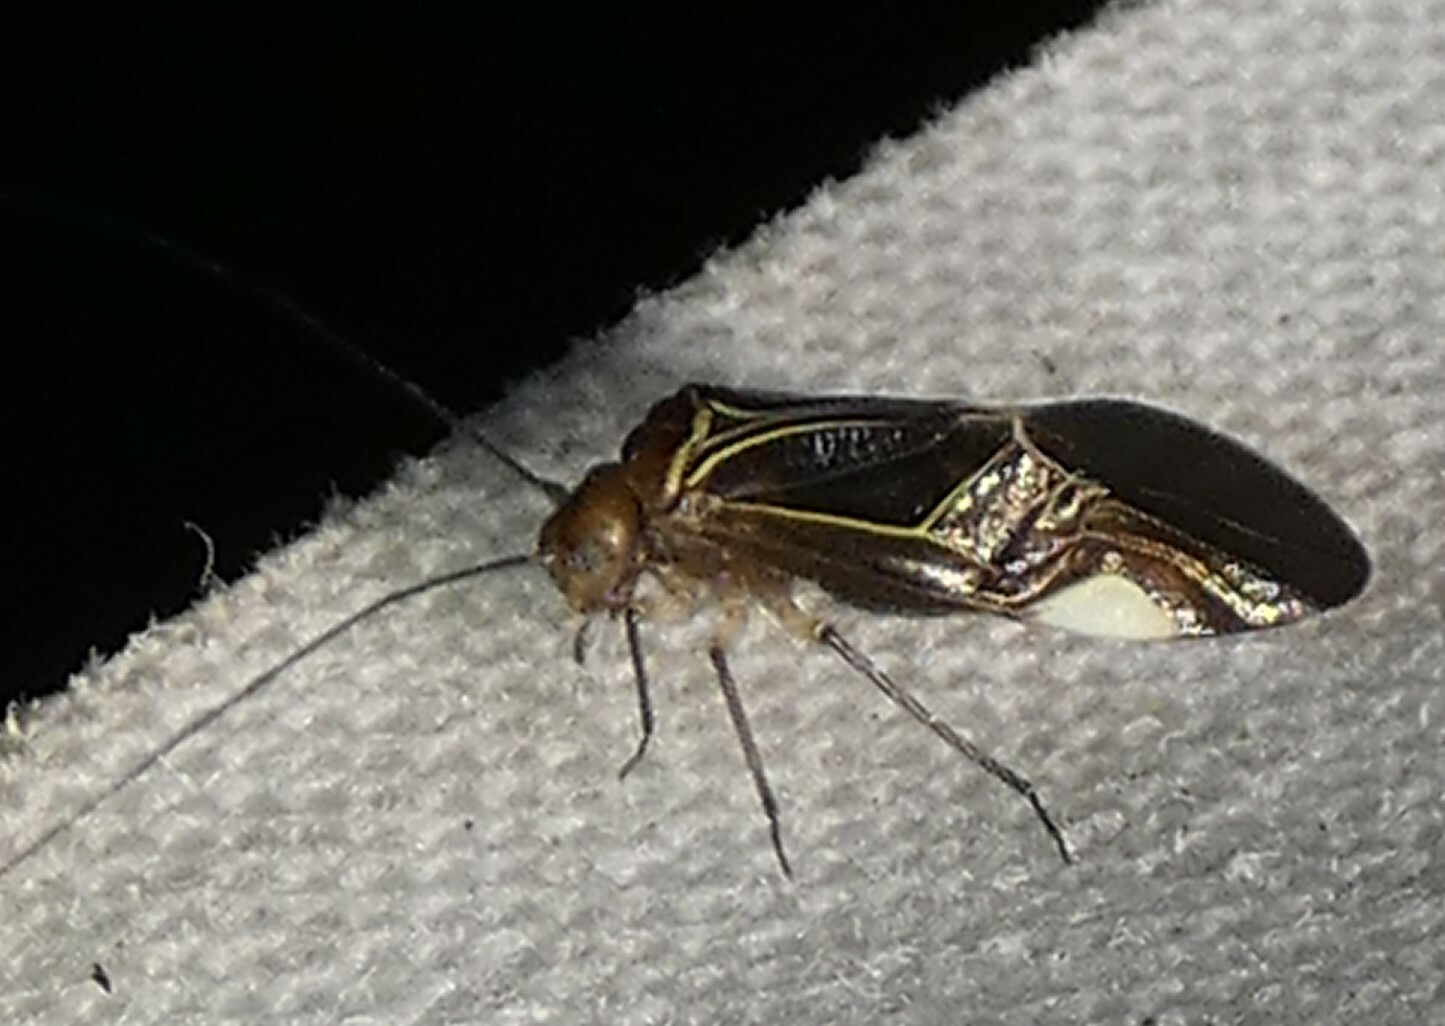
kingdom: Animalia
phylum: Arthropoda
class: Insecta
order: Psocodea
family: Psocidae
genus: Cerastipsocus
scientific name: Cerastipsocus venosus
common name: Tree cattle
